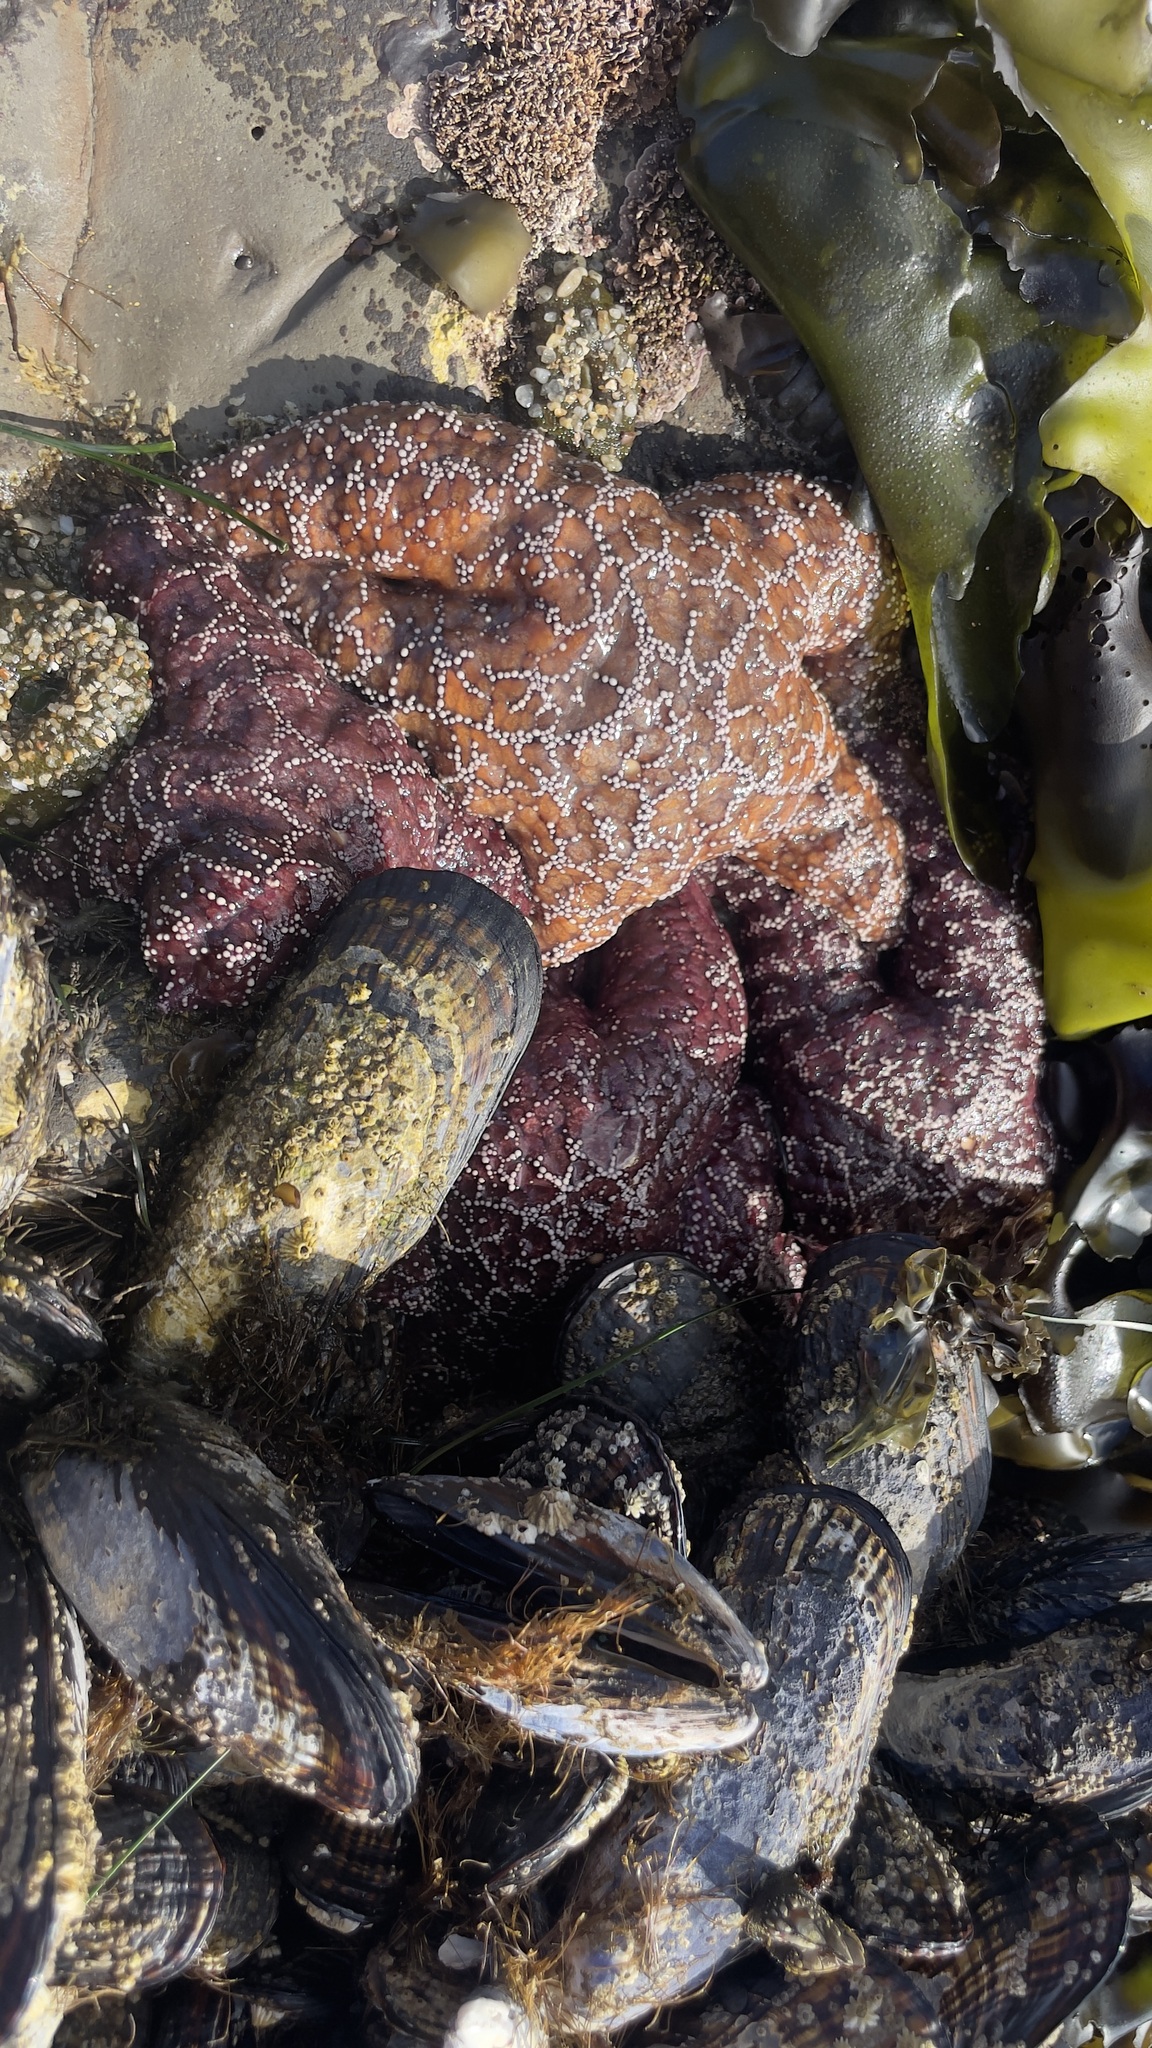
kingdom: Animalia
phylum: Echinodermata
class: Asteroidea
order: Forcipulatida
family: Asteriidae
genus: Pisaster
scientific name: Pisaster ochraceus
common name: Ochre stars
